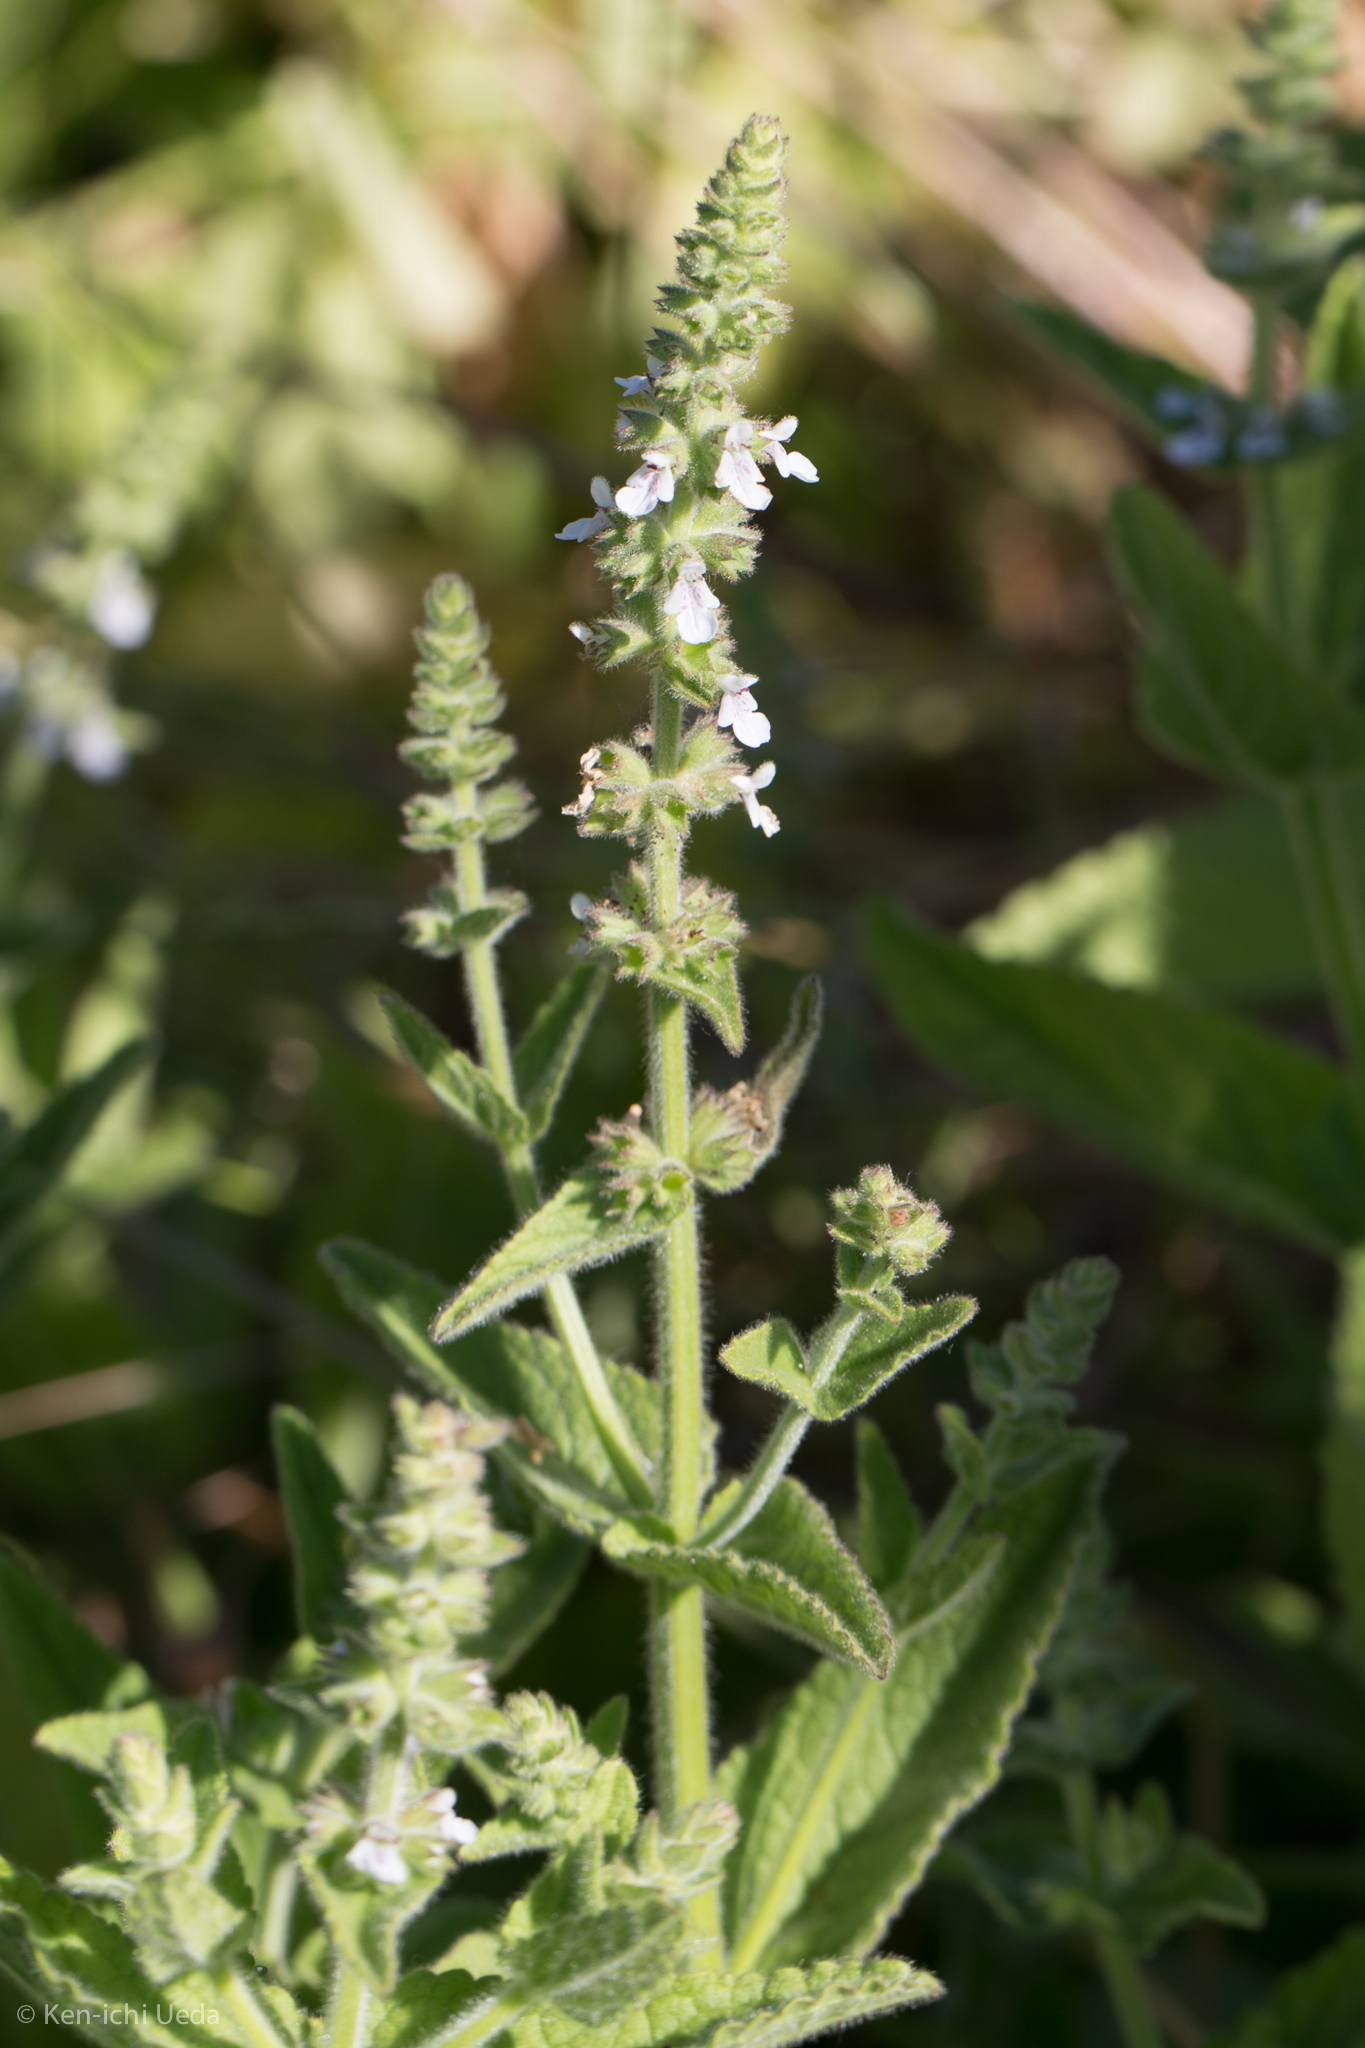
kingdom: Plantae
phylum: Tracheophyta
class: Magnoliopsida
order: Lamiales
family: Lamiaceae
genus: Stachys
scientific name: Stachys albens
